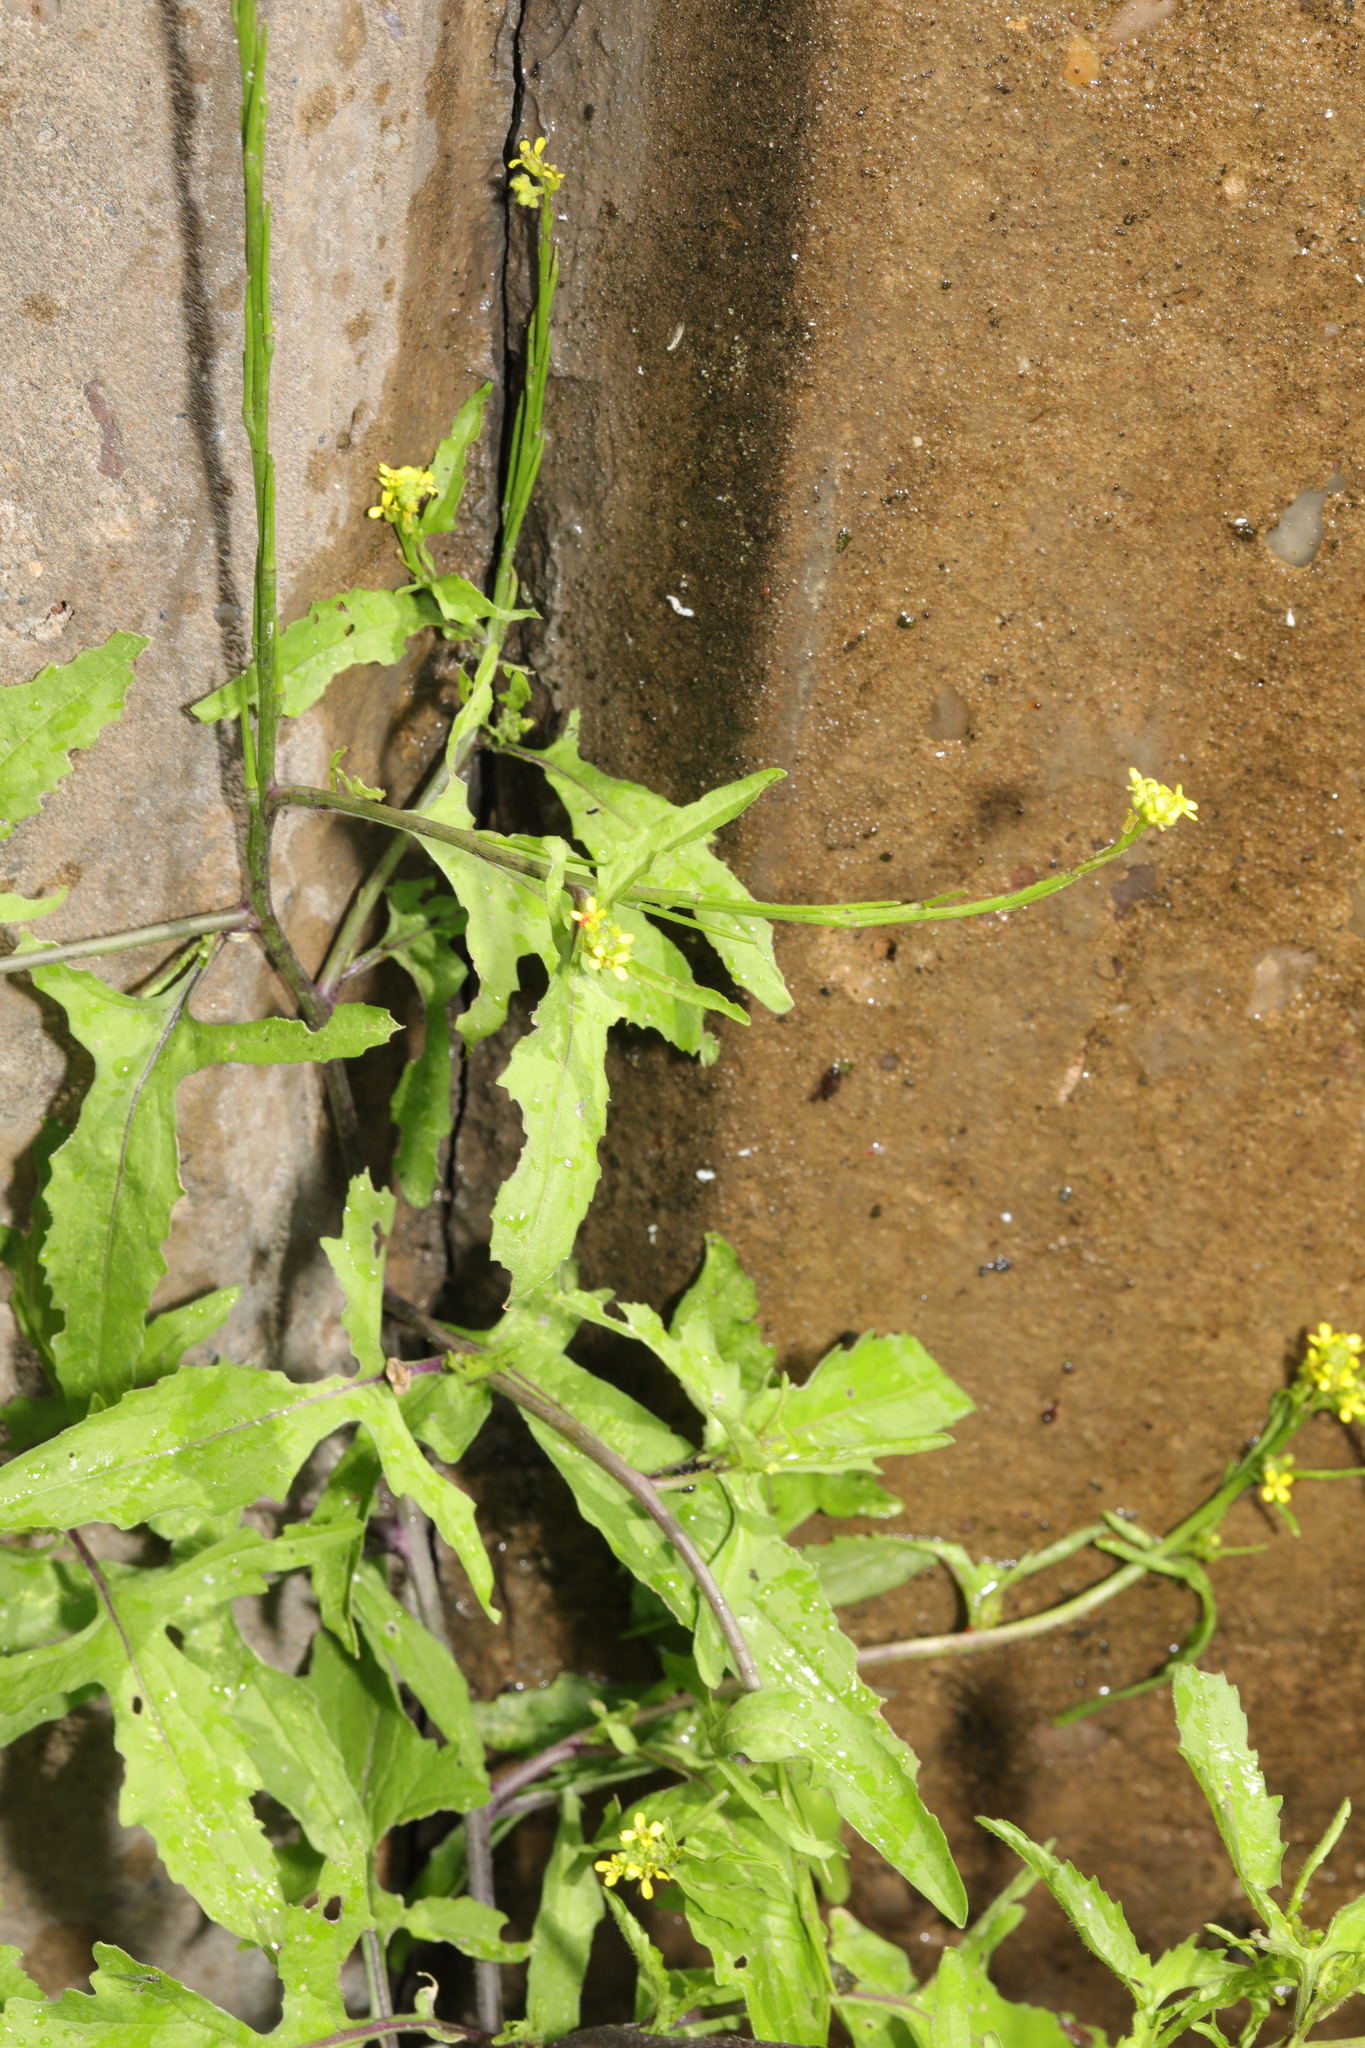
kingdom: Plantae
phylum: Tracheophyta
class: Magnoliopsida
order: Brassicales
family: Brassicaceae
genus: Sisymbrium
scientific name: Sisymbrium officinale
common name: Hedge mustard
